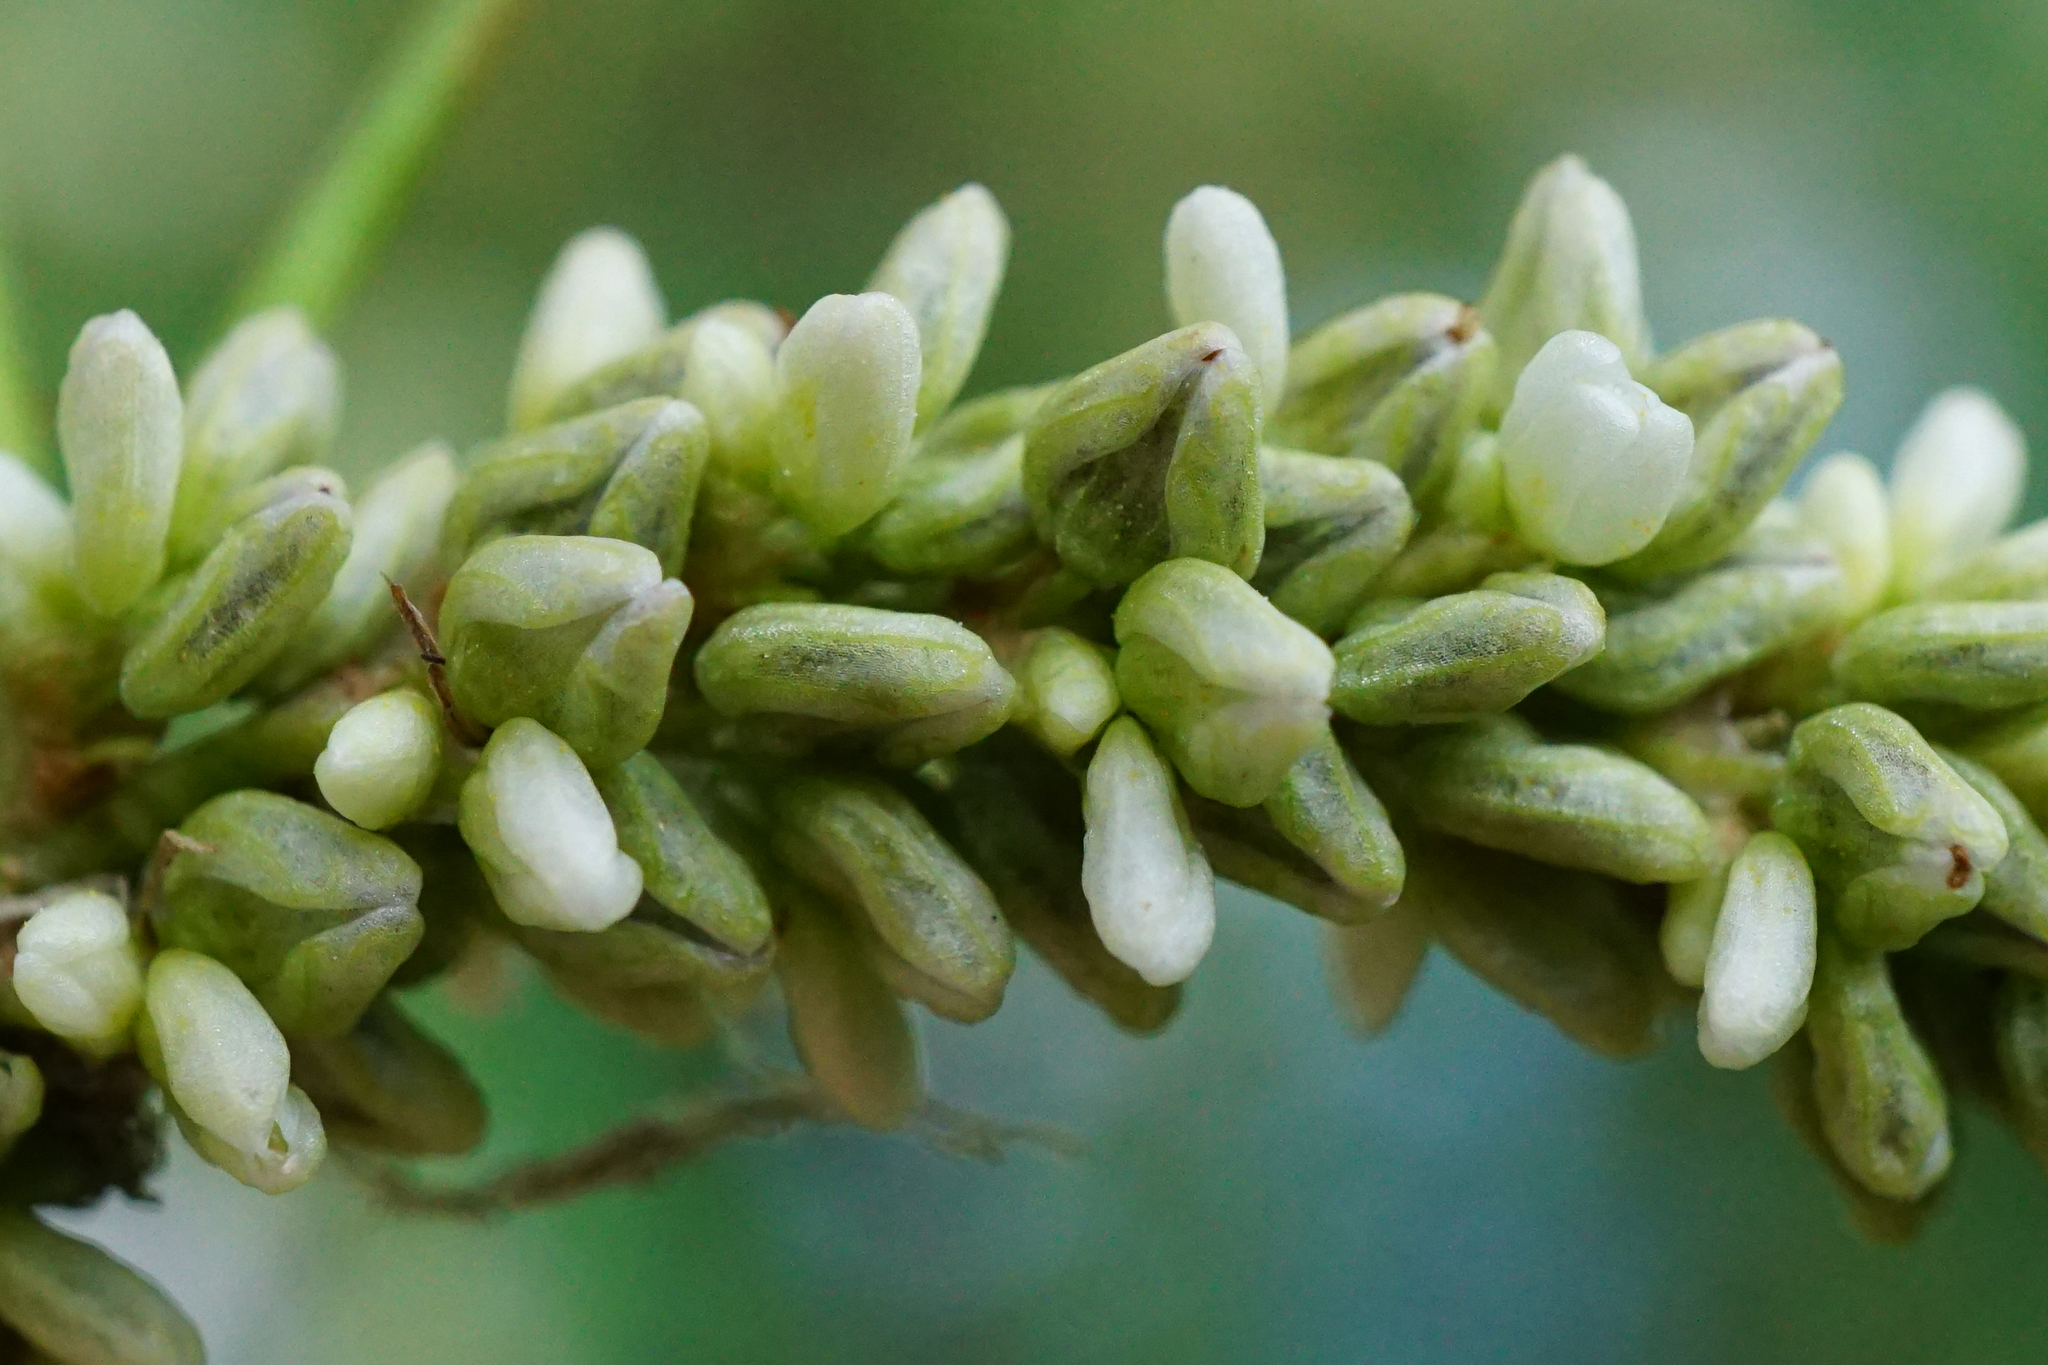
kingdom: Plantae
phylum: Tracheophyta
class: Magnoliopsida
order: Caryophyllales
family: Polygonaceae
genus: Persicaria
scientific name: Persicaria lapathifolia
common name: Curlytop knotweed
